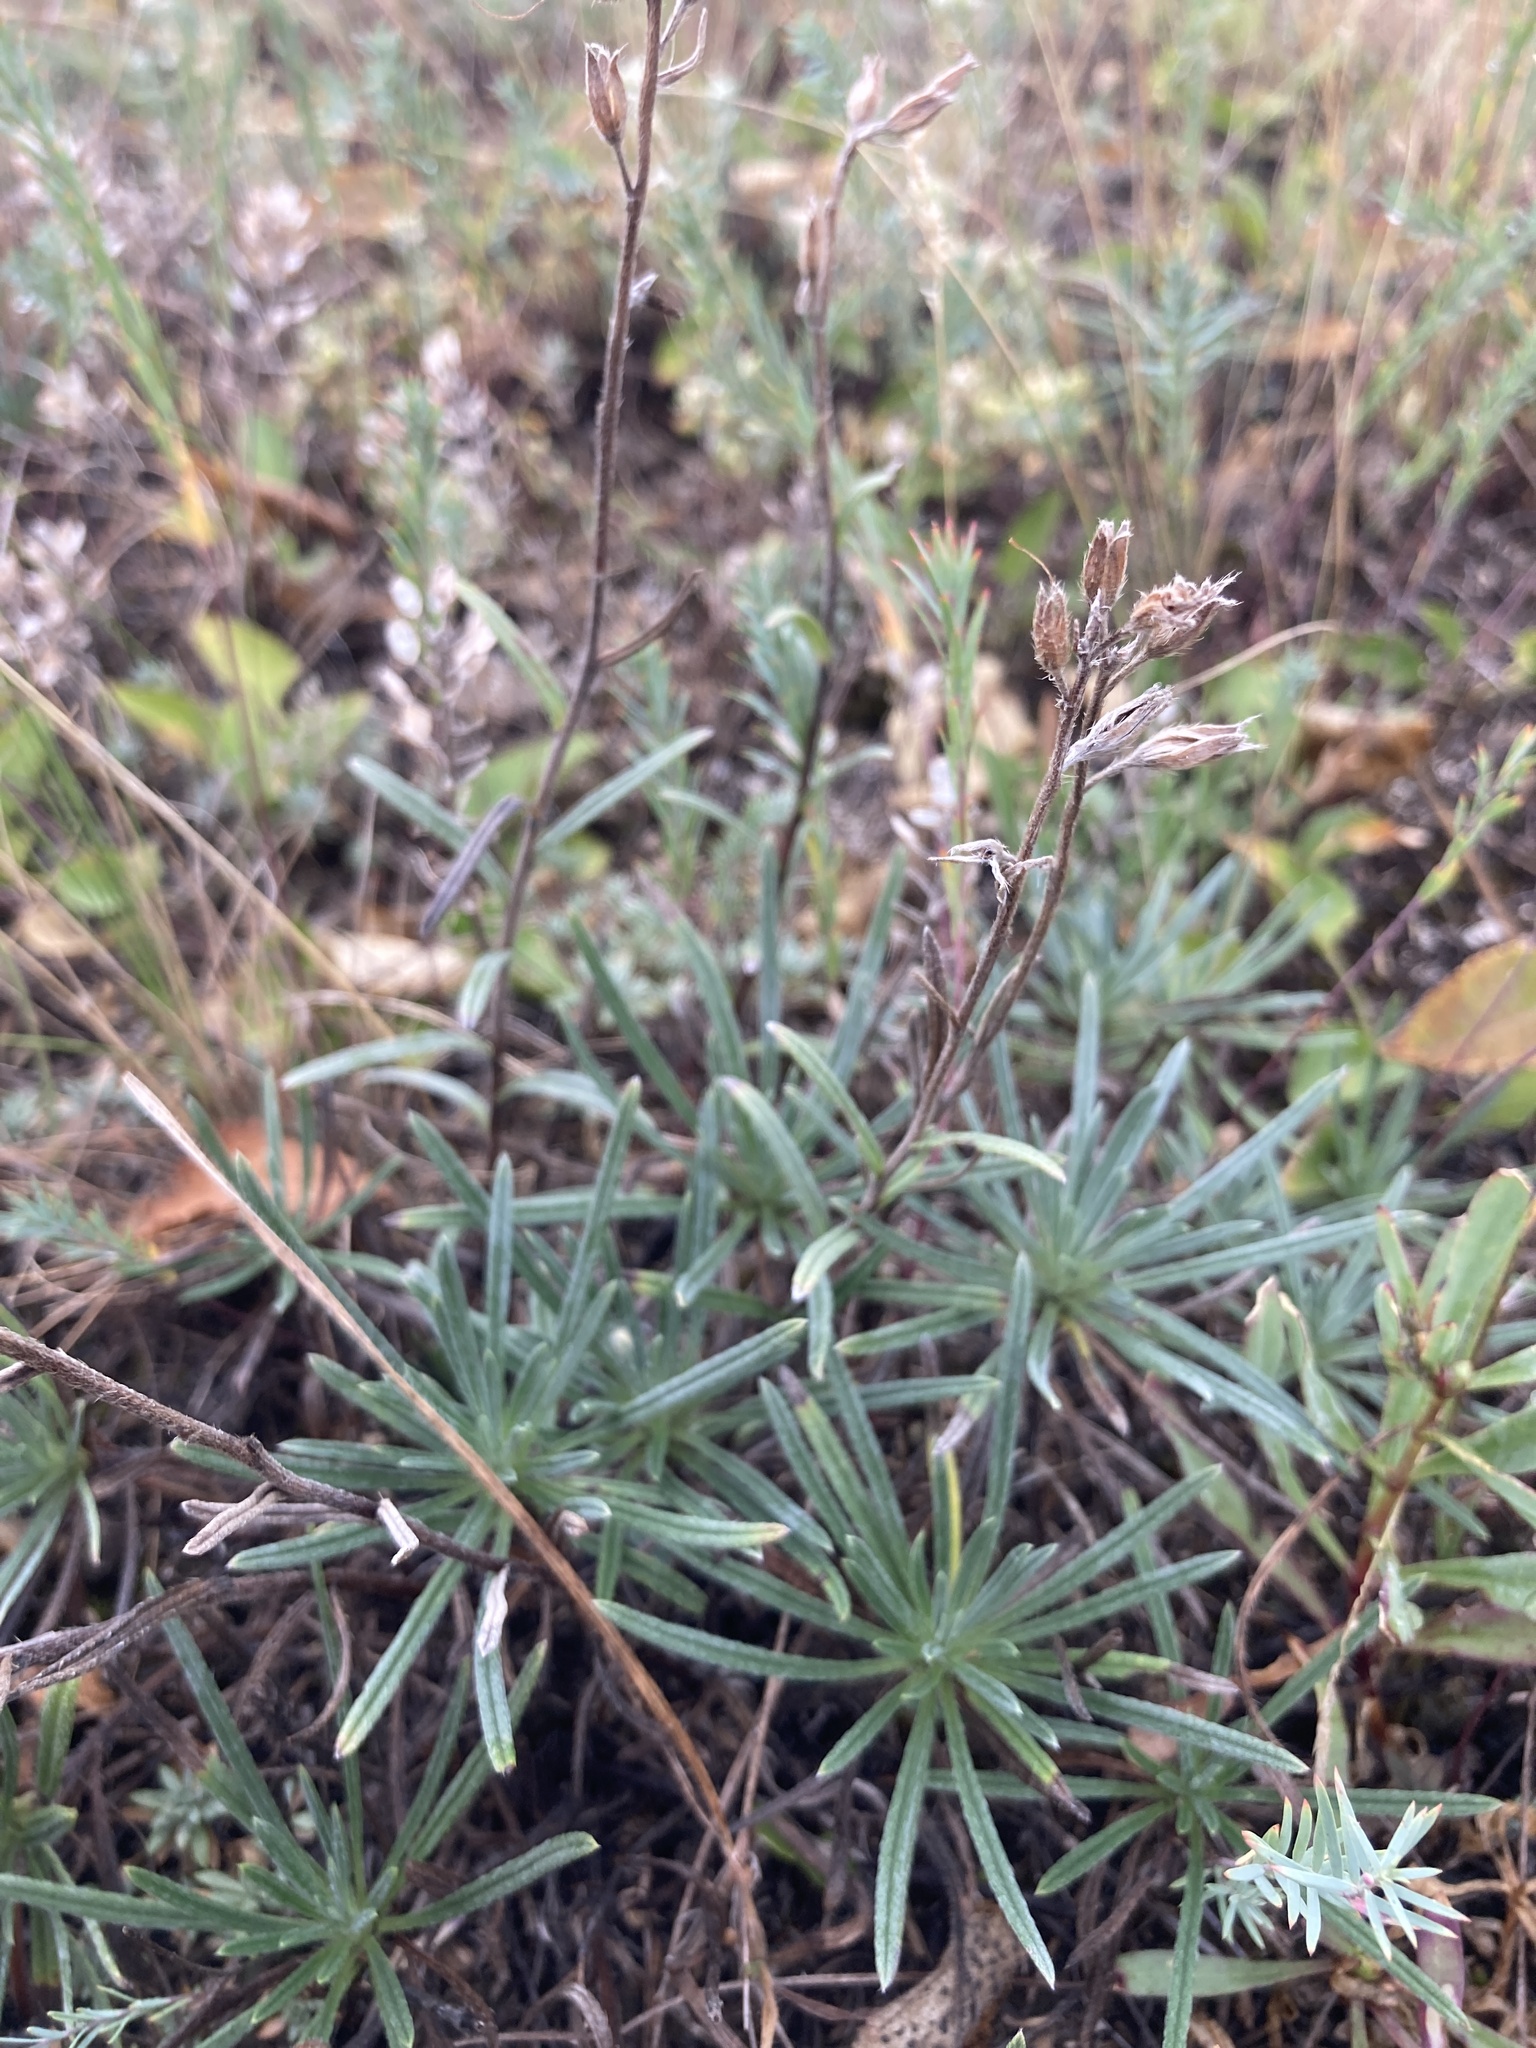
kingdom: Plantae
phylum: Tracheophyta
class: Magnoliopsida
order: Boraginales
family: Boraginaceae
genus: Onosma
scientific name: Onosma simplicissima
